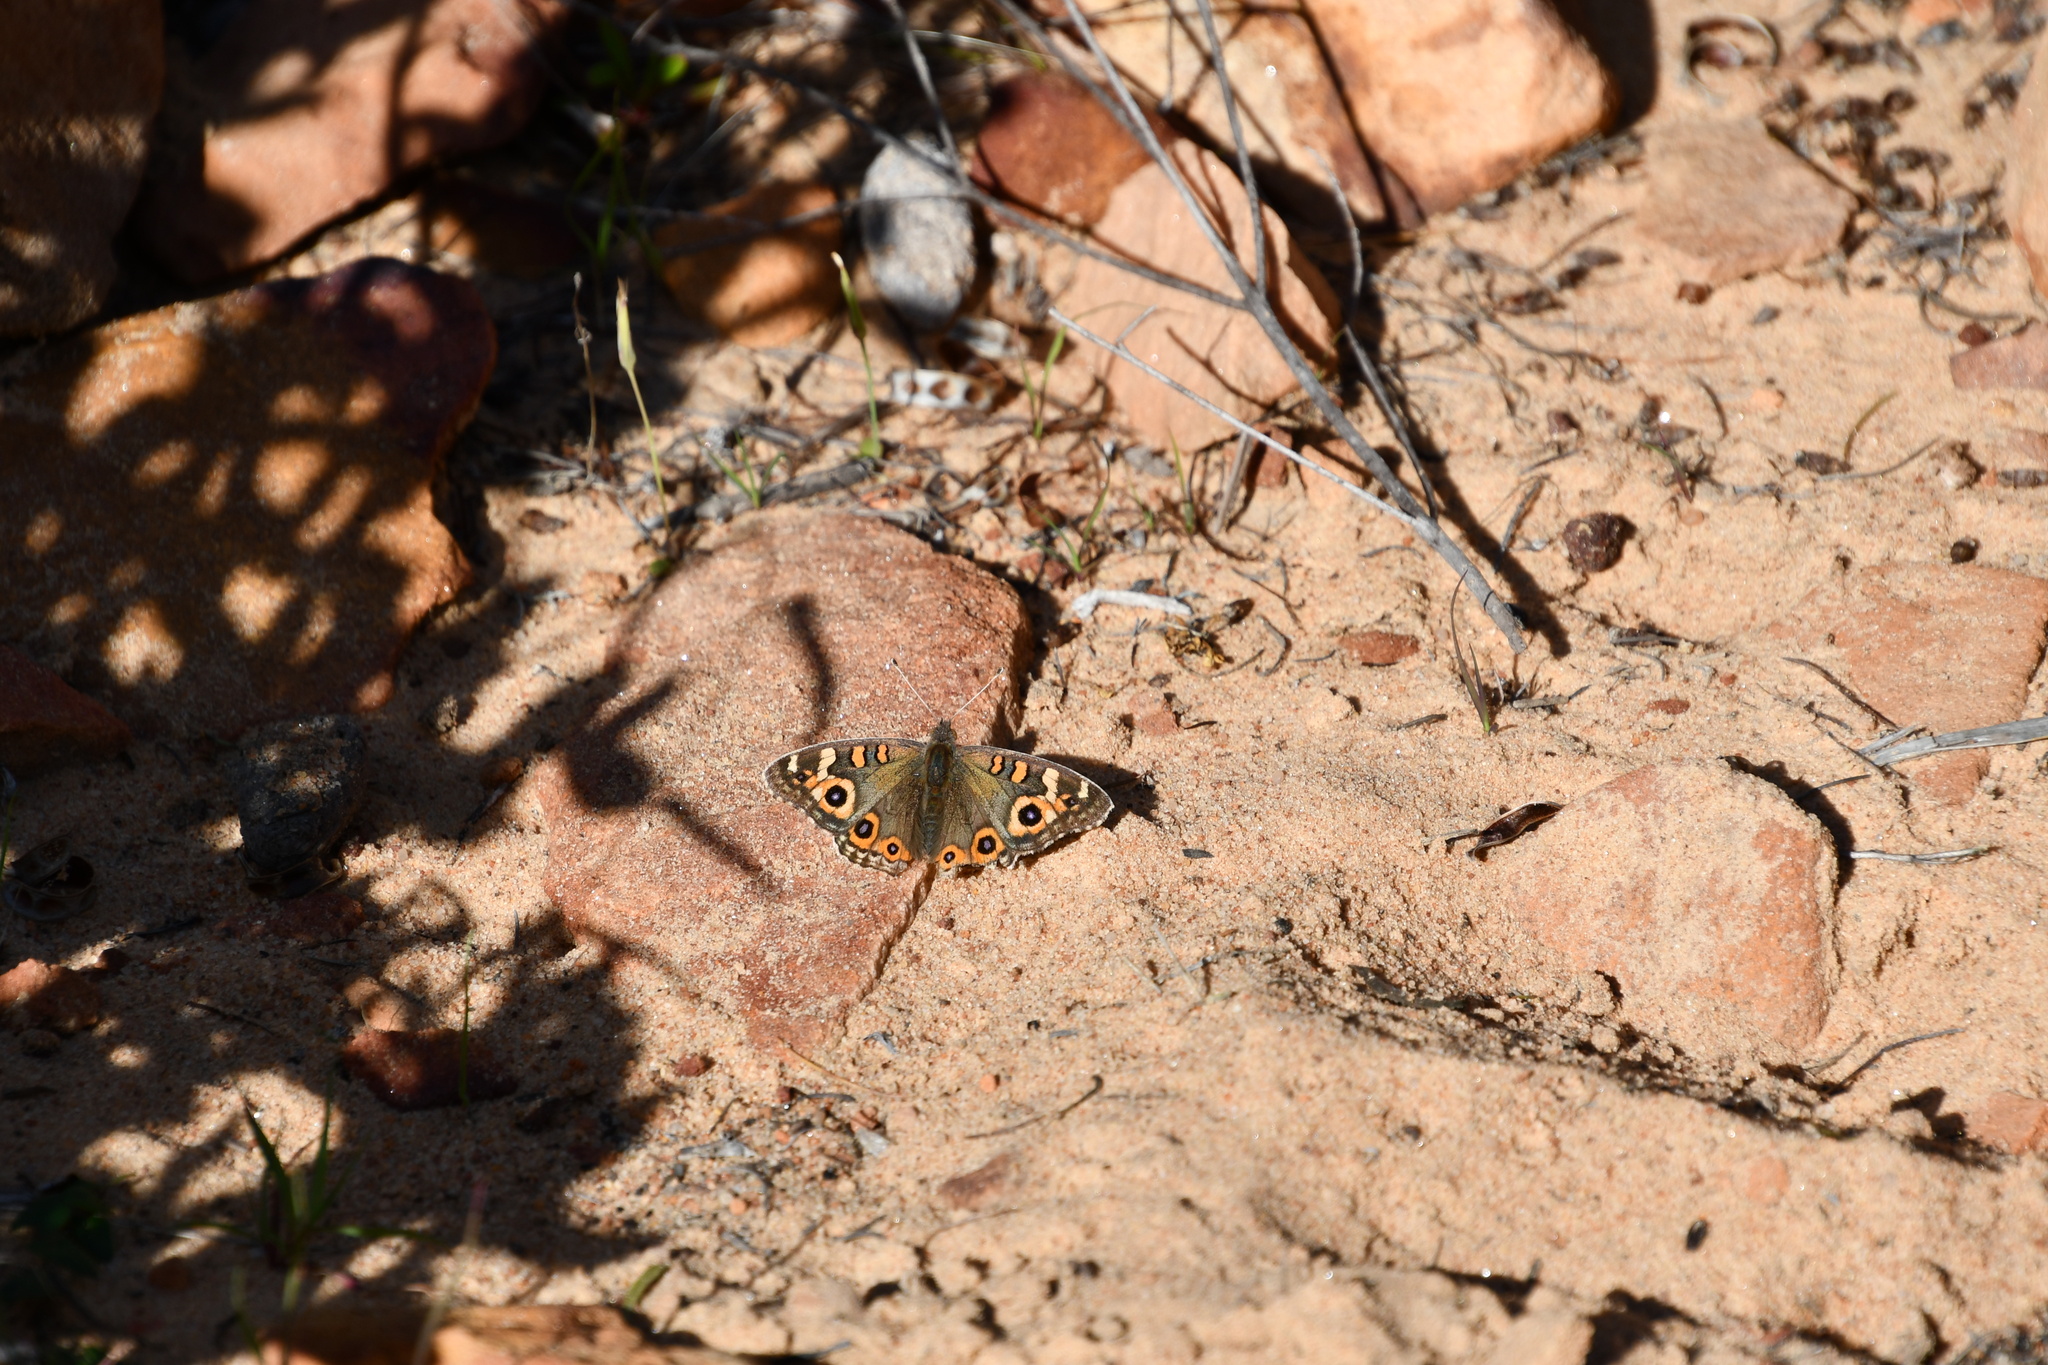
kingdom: Animalia
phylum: Arthropoda
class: Insecta
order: Lepidoptera
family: Nymphalidae
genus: Junonia
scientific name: Junonia villida
